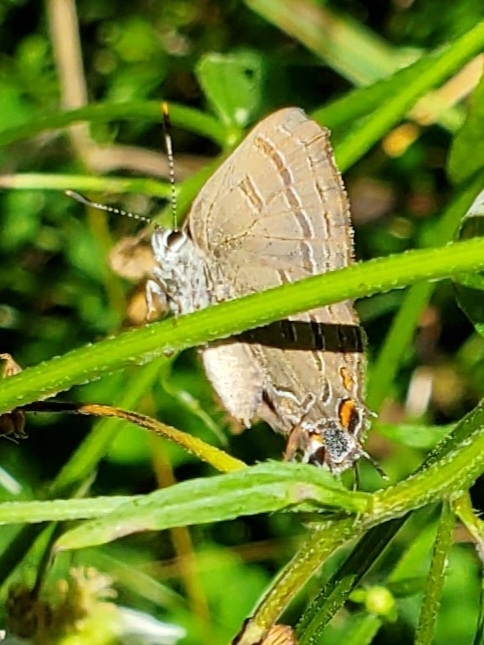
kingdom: Animalia
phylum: Arthropoda
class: Insecta
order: Lepidoptera
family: Lycaenidae
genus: Satyrium
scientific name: Satyrium calanus
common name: Banded hairstreak
